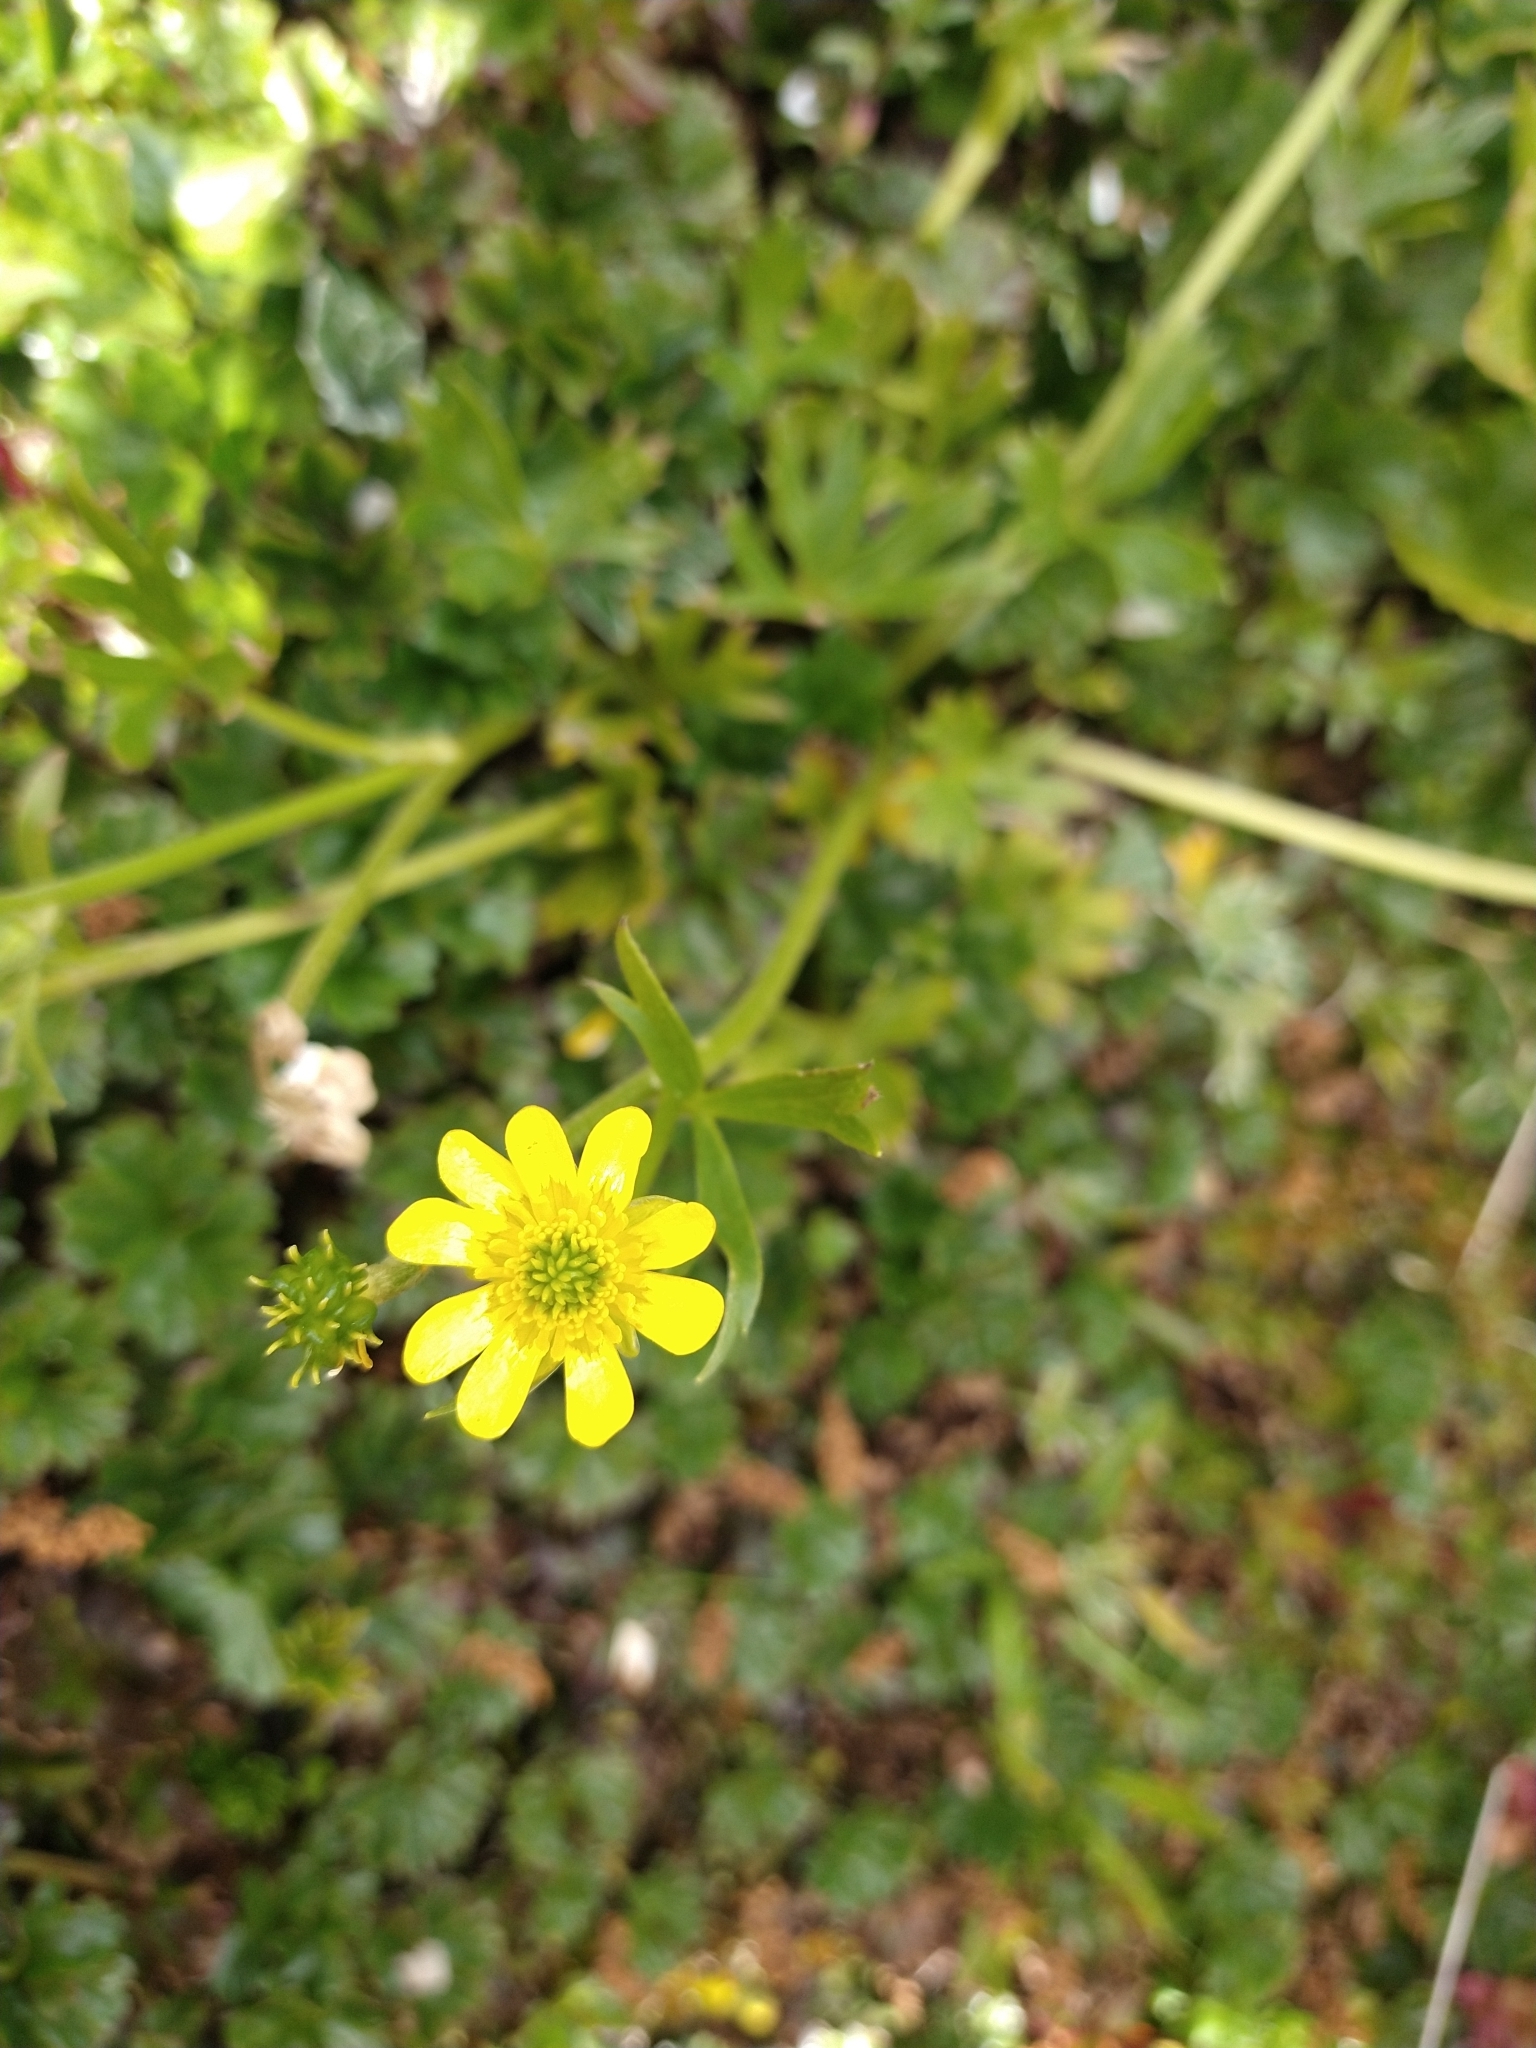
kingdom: Plantae
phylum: Tracheophyta
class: Magnoliopsida
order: Ranunculales
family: Ranunculaceae
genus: Ranunculus
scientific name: Ranunculus peduncularis
